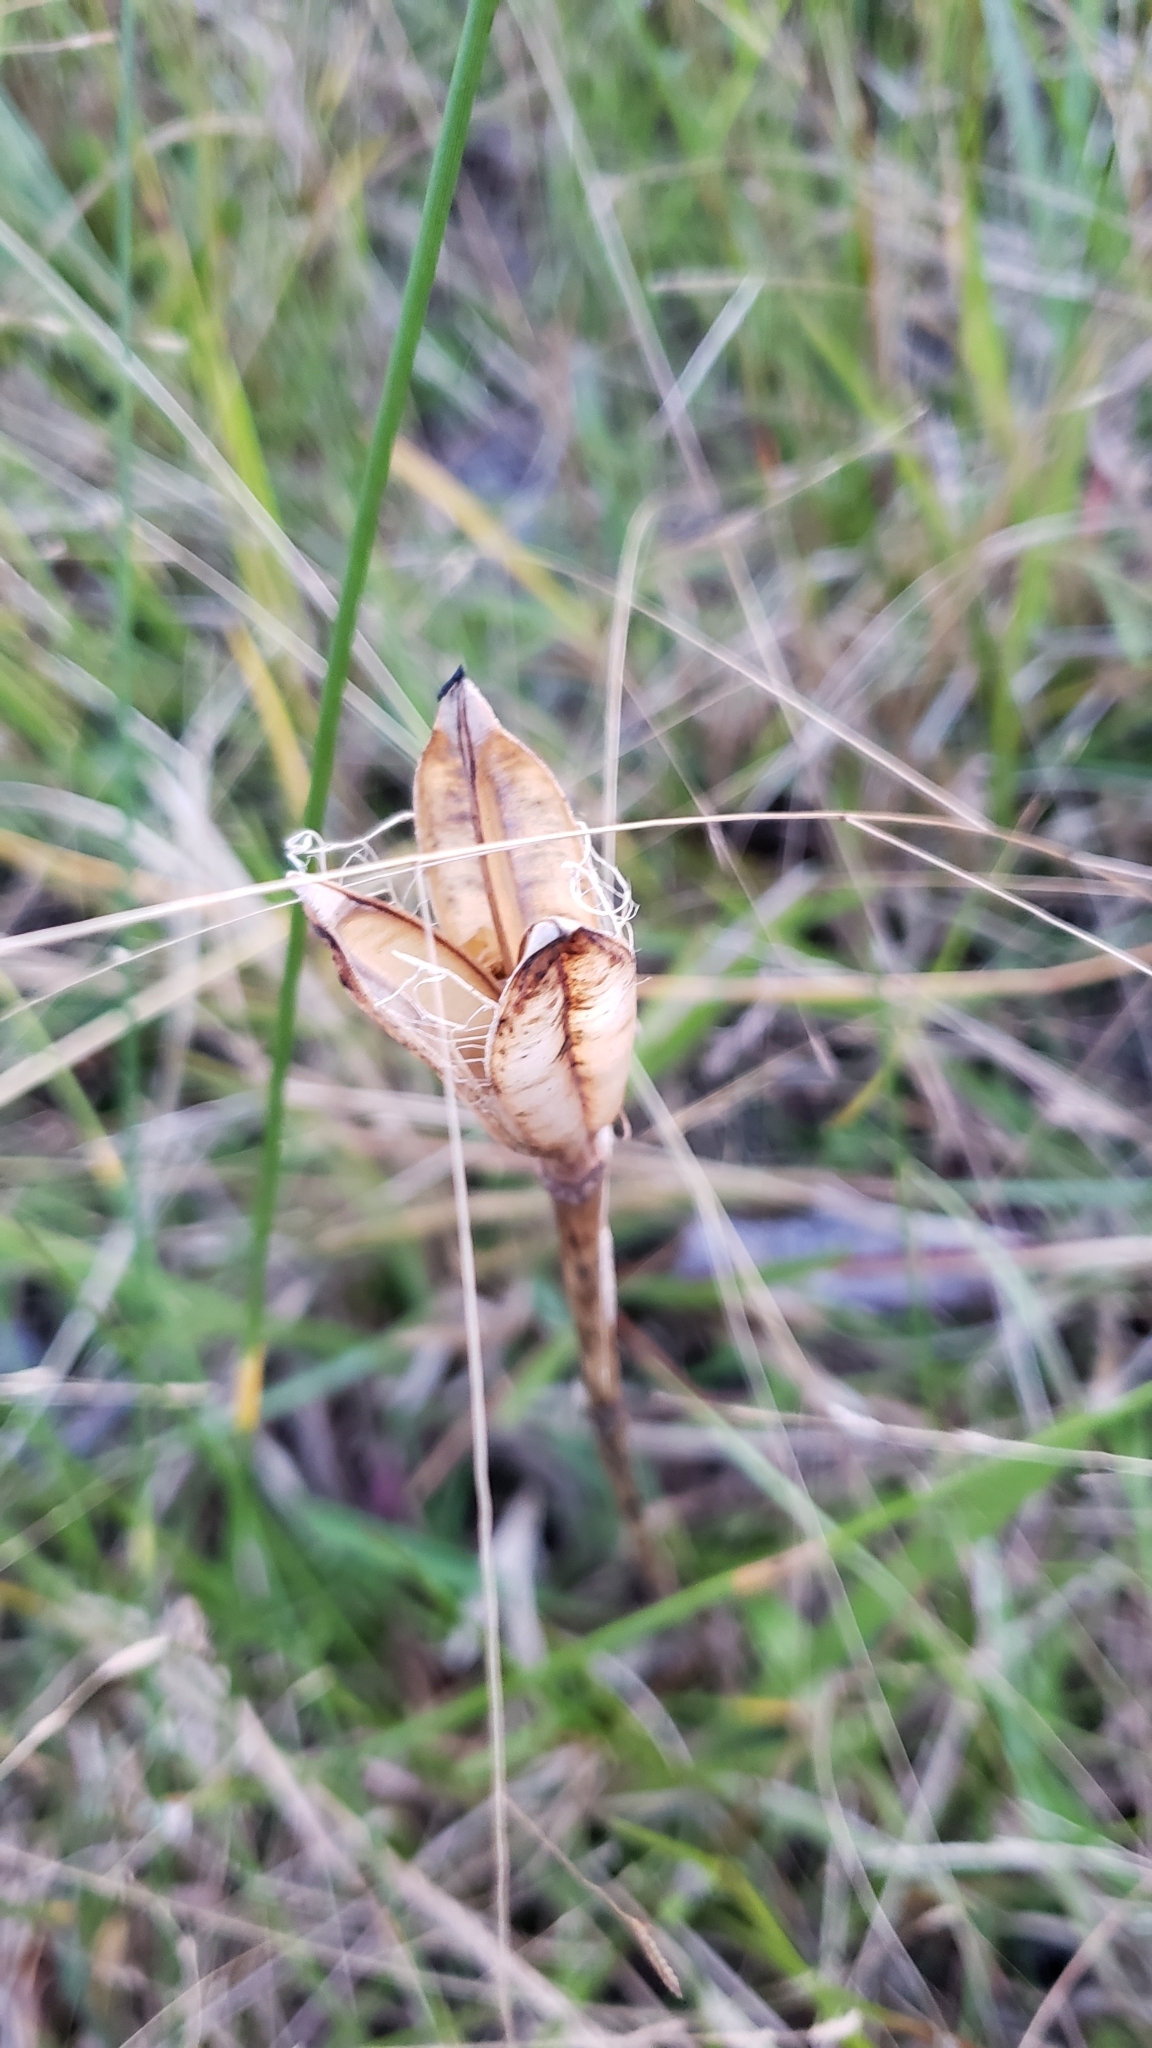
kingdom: Plantae
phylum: Tracheophyta
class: Liliopsida
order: Liliales
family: Liliaceae
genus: Lilium
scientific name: Lilium catesbaei
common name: Catesby's lily
